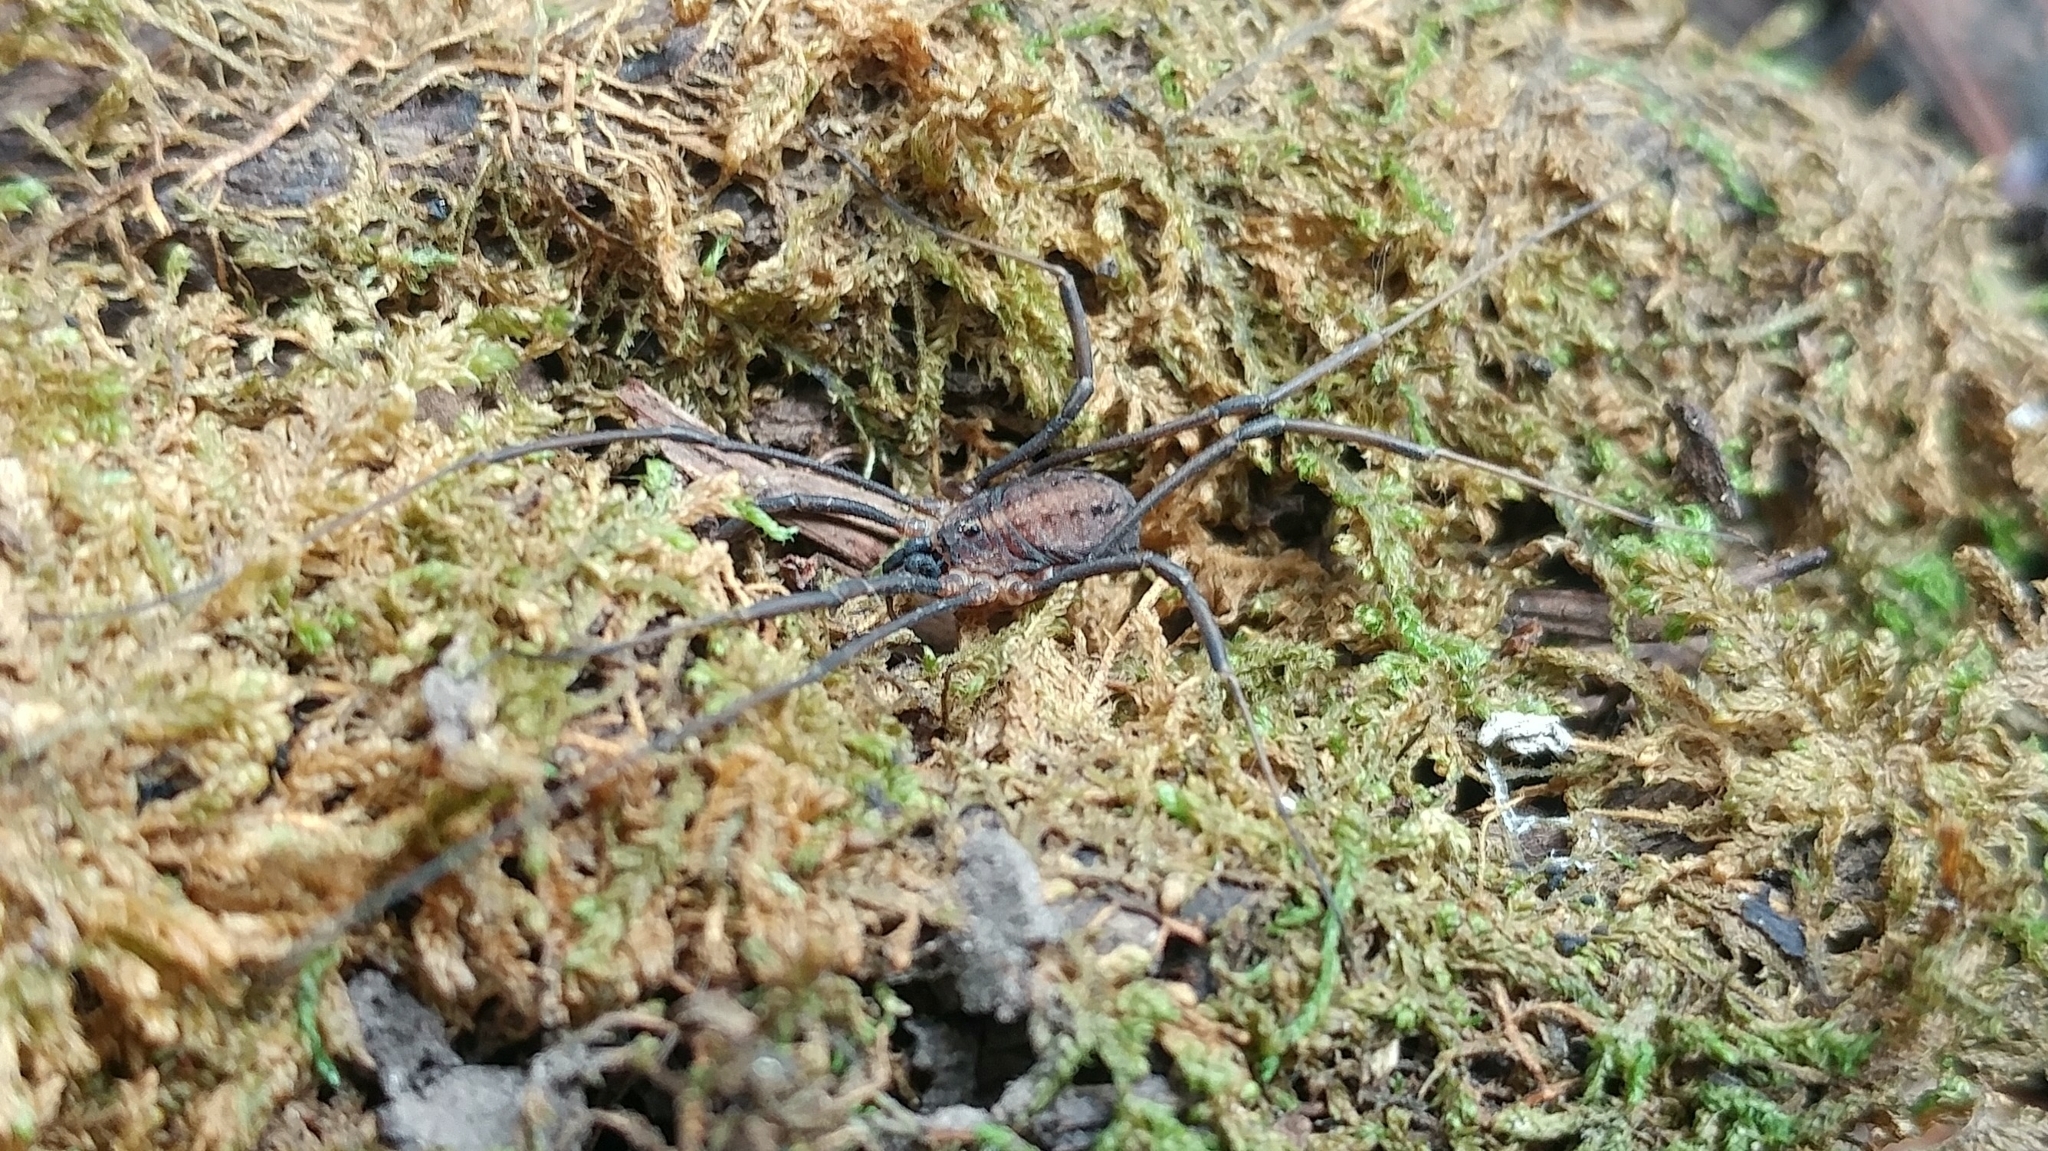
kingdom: Animalia
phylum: Arthropoda
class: Arachnida
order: Opiliones
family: Sclerosomatidae
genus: Togwoteeus
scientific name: Togwoteeus biceps
